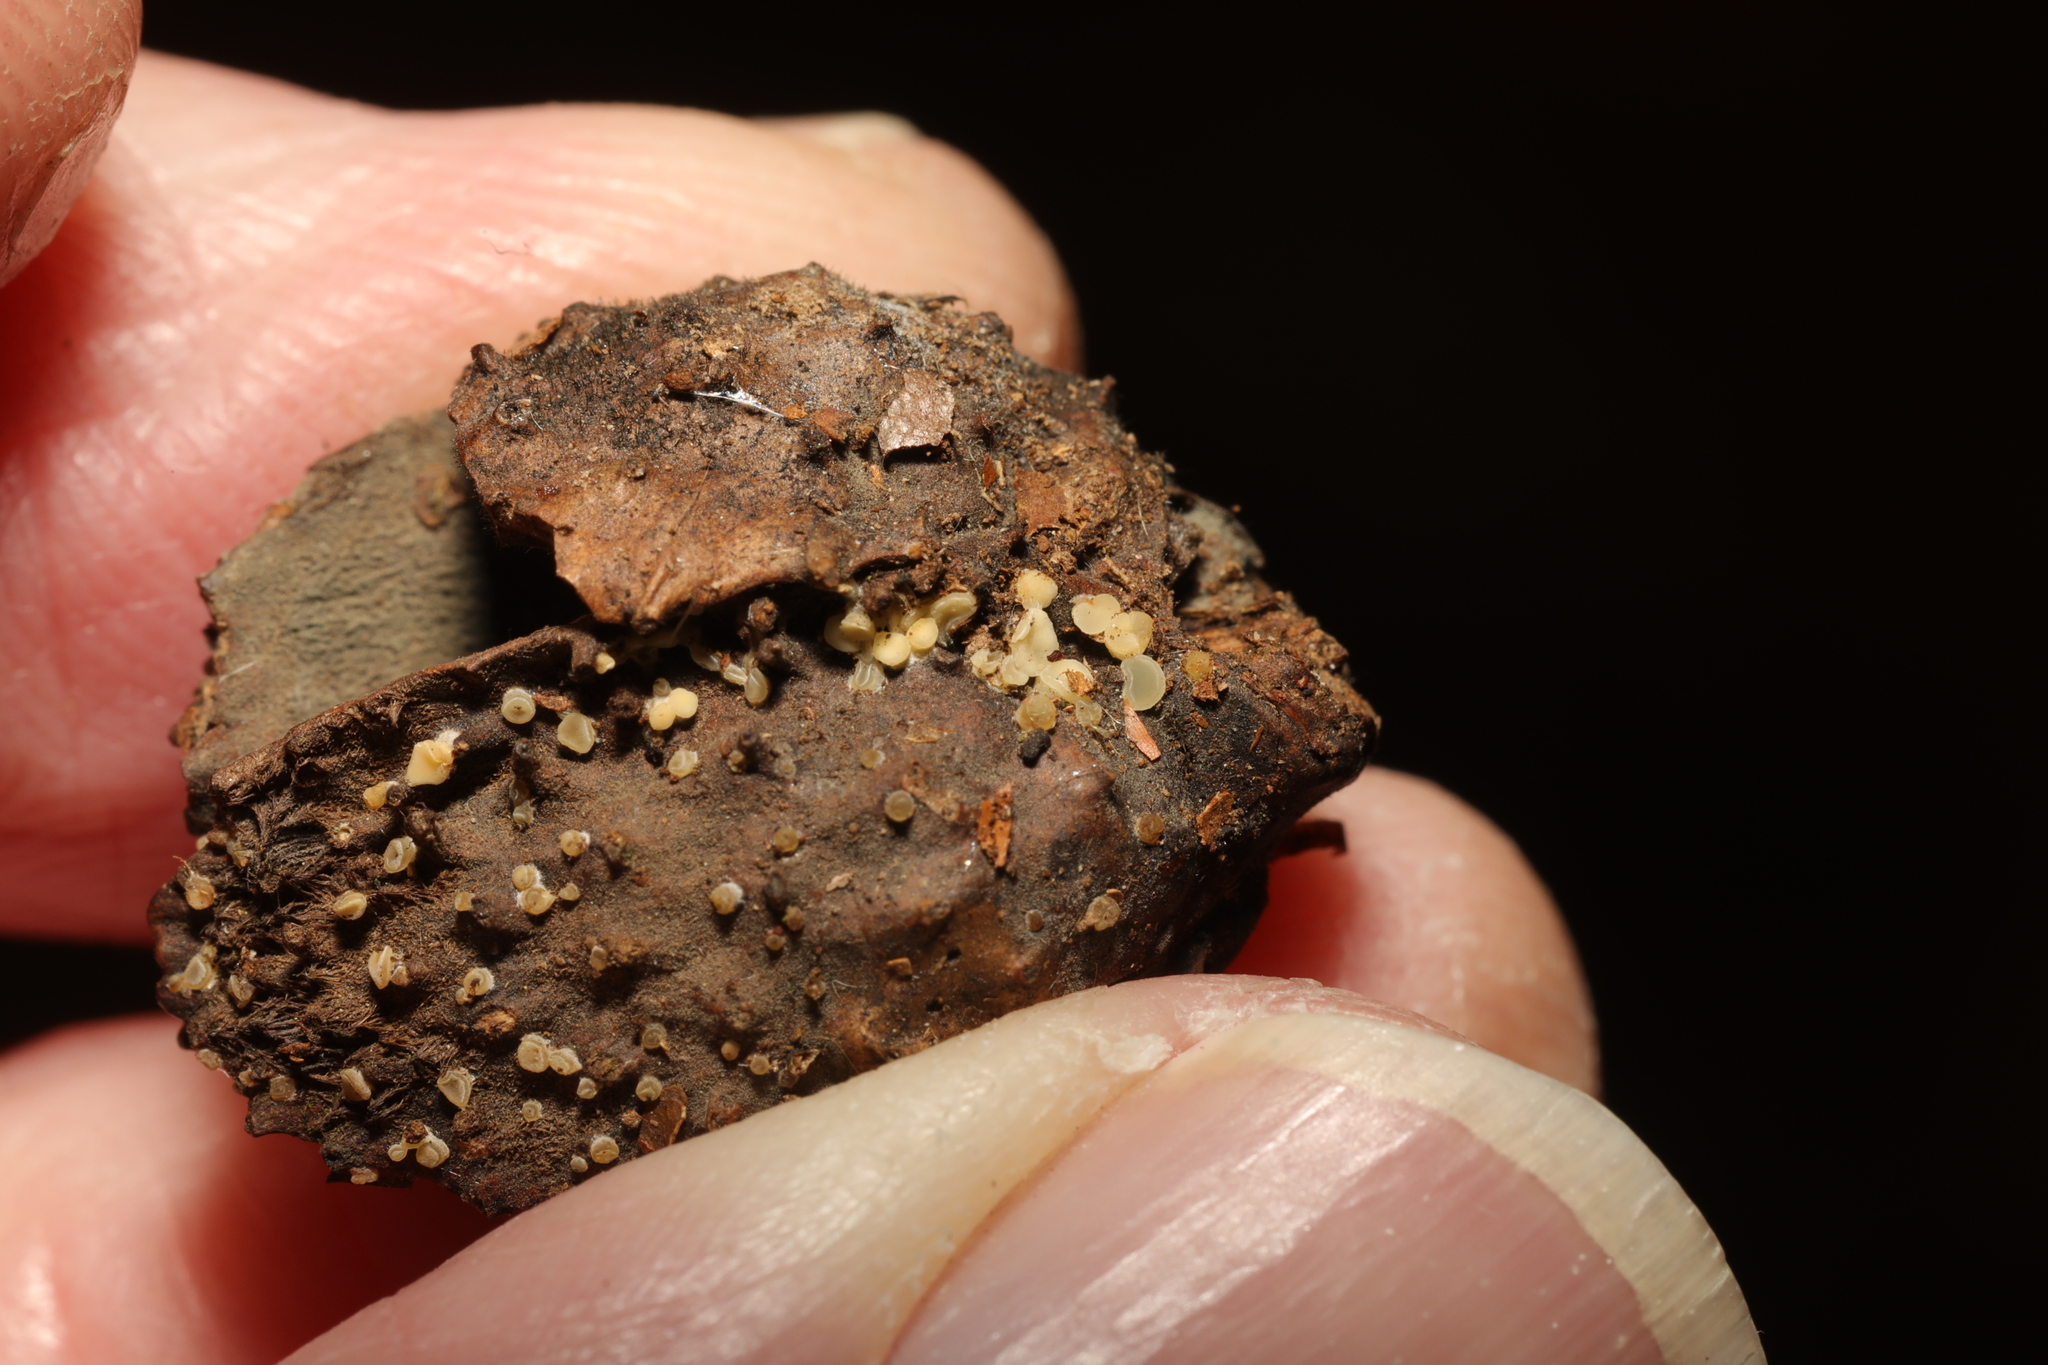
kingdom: Fungi
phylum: Ascomycota
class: Leotiomycetes
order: Helotiales
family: Helotiaceae
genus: Hymenoscyphus
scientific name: Hymenoscyphus fructigenus
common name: Nut disco
